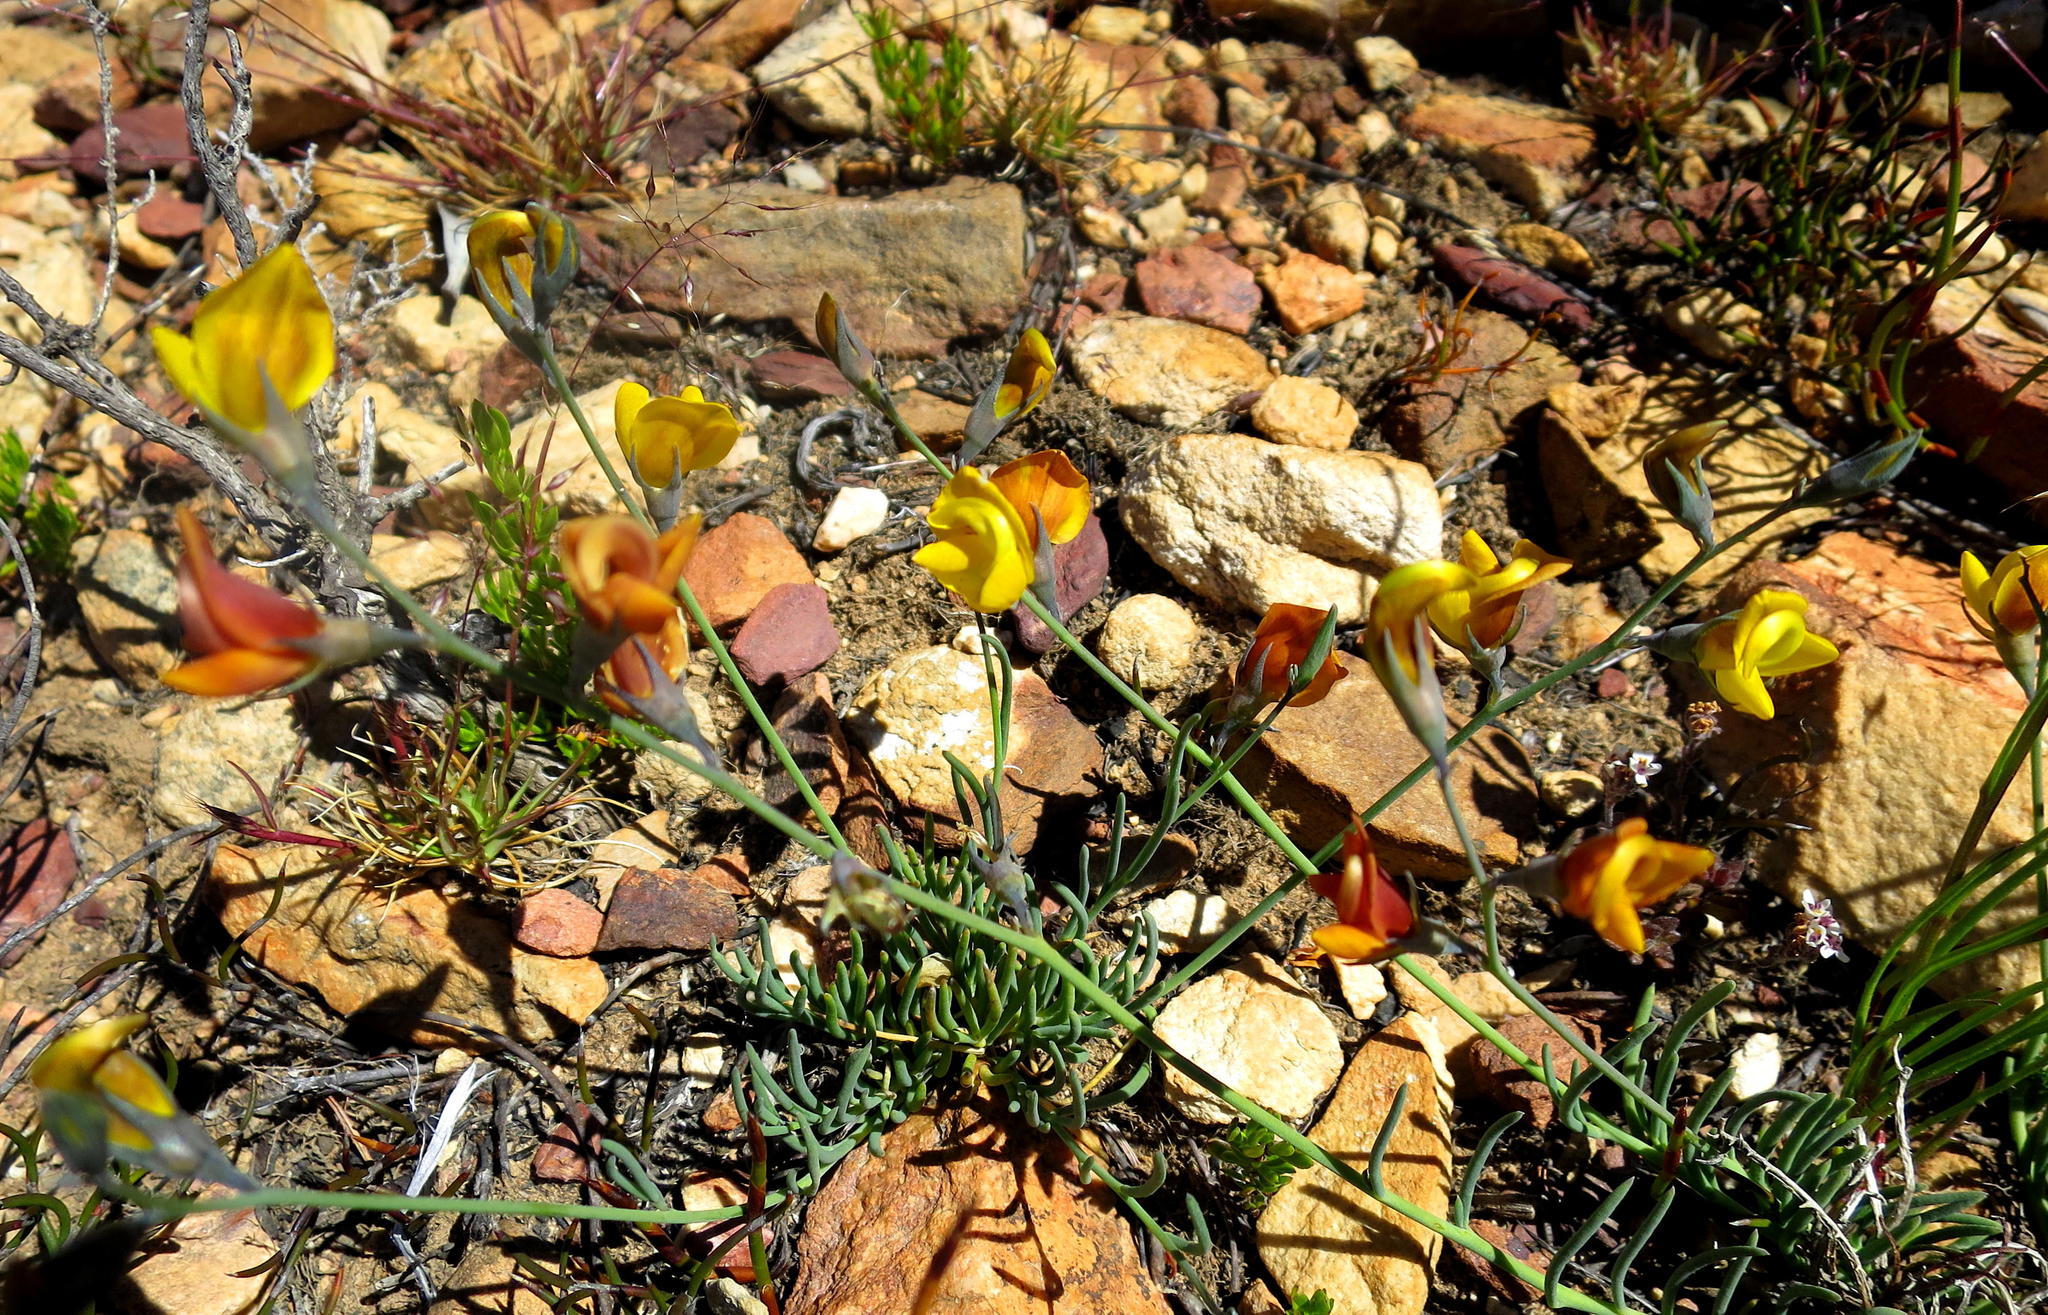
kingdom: Plantae
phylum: Tracheophyta
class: Magnoliopsida
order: Fabales
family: Fabaceae
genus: Lebeckia
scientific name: Lebeckia pauciflora
